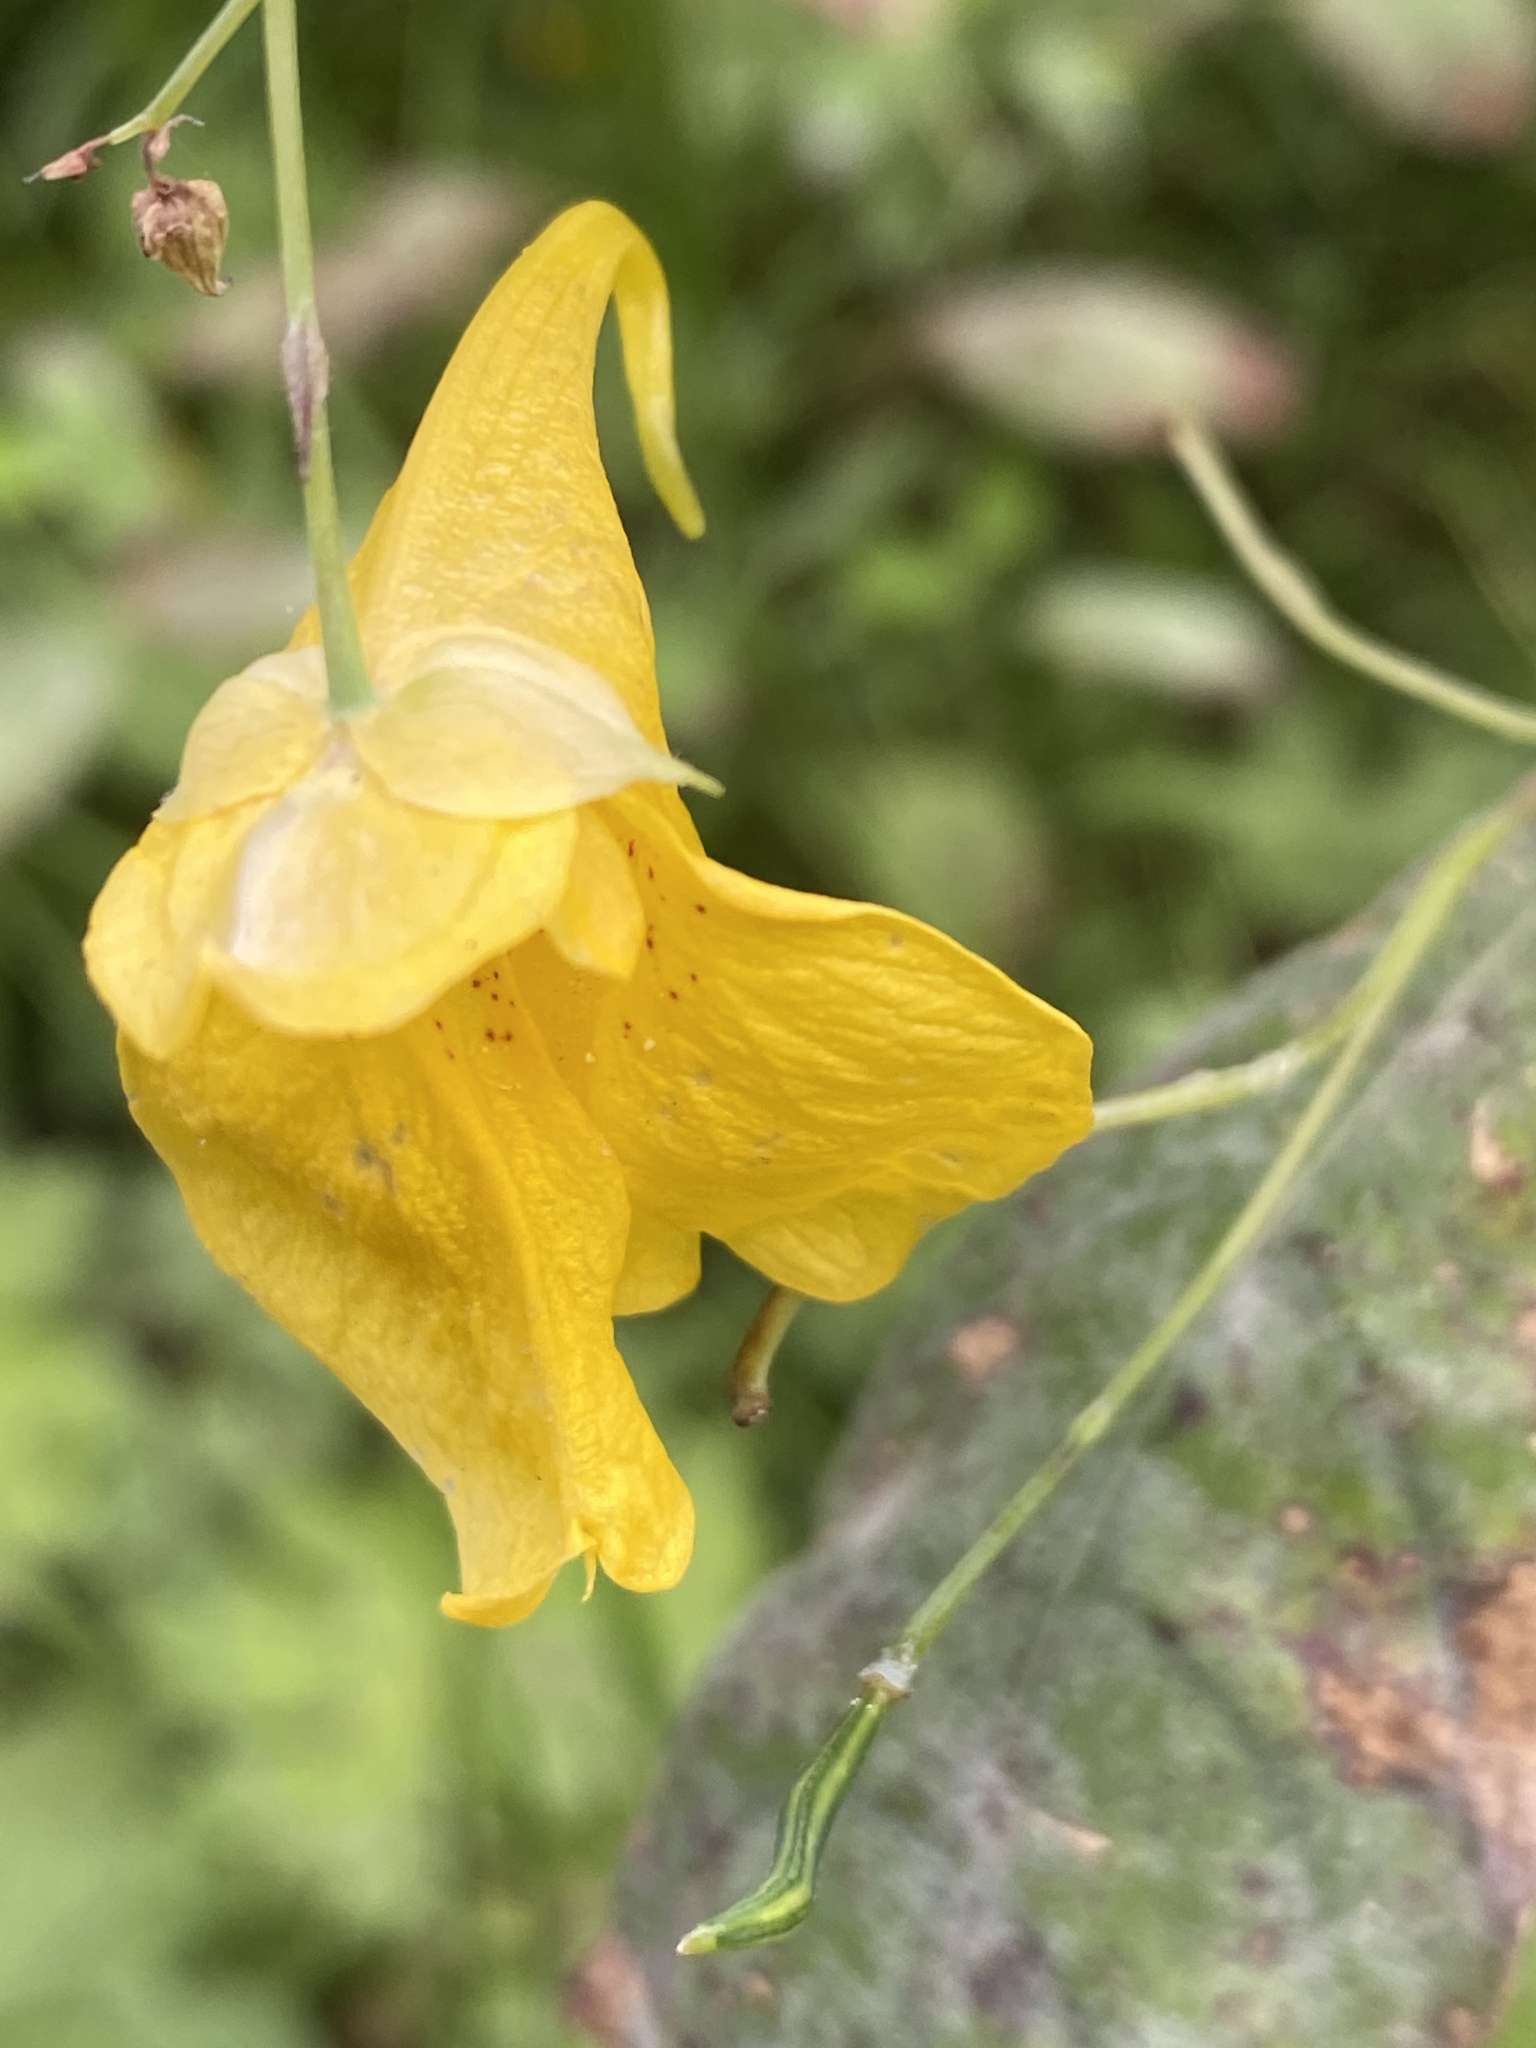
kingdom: Plantae
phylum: Tracheophyta
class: Magnoliopsida
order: Ericales
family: Balsaminaceae
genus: Impatiens
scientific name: Impatiens noli-tangere
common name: Touch-me-not balsam
